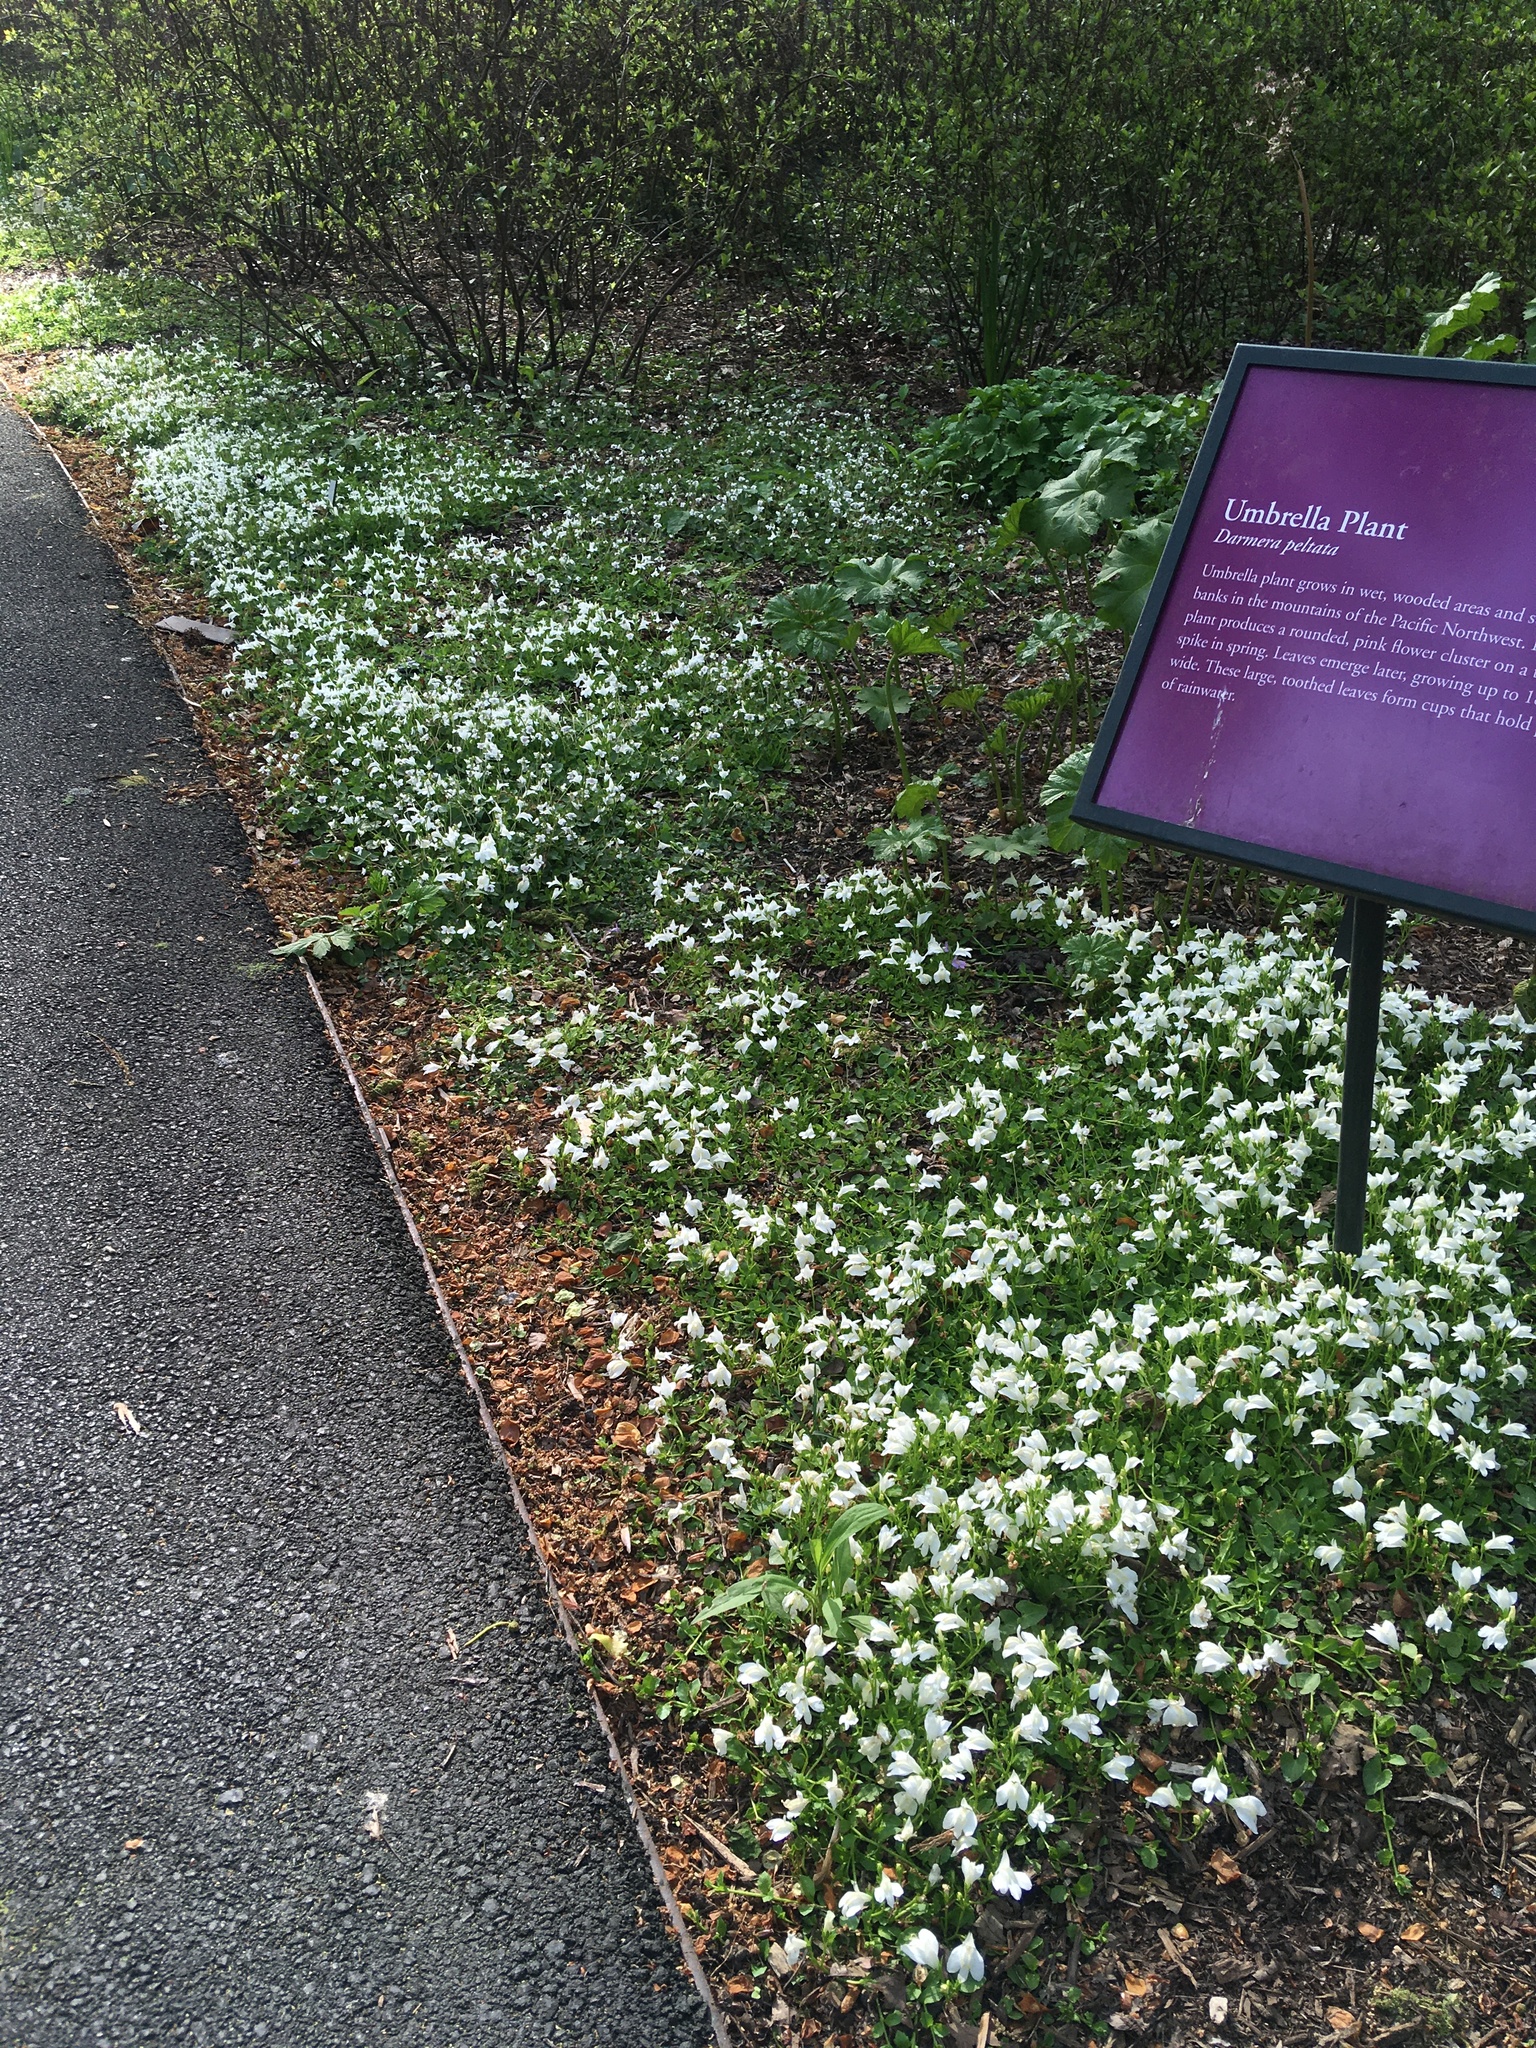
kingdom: Plantae
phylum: Tracheophyta
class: Magnoliopsida
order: Lamiales
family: Mazaceae
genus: Mazus
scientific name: Mazus miquelii
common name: Miquel's mazus
